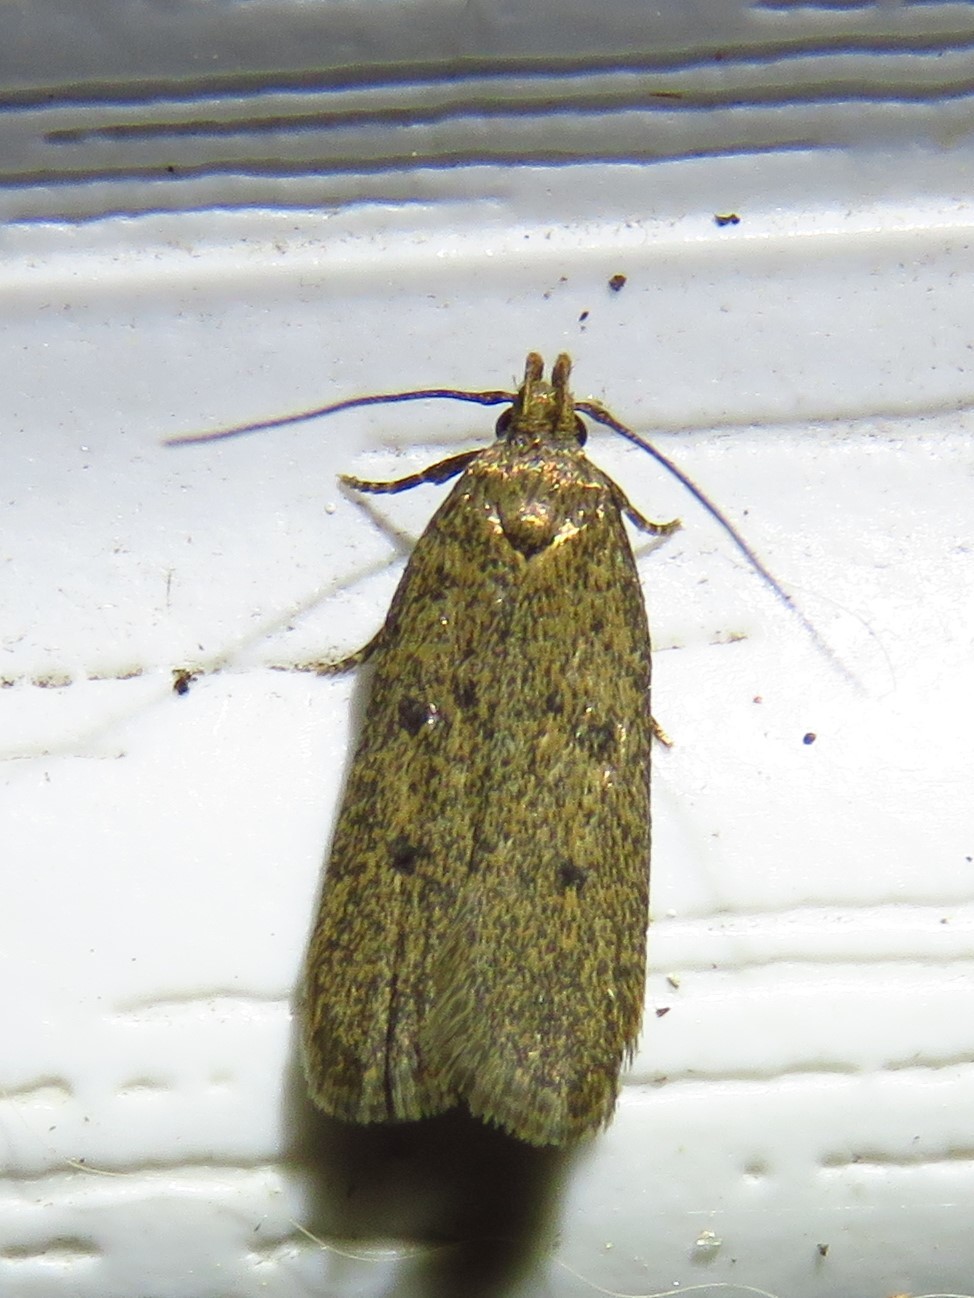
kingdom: Animalia
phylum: Arthropoda
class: Insecta
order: Lepidoptera
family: Autostichidae
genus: Glyphidocera
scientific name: Glyphidocera juniperella
